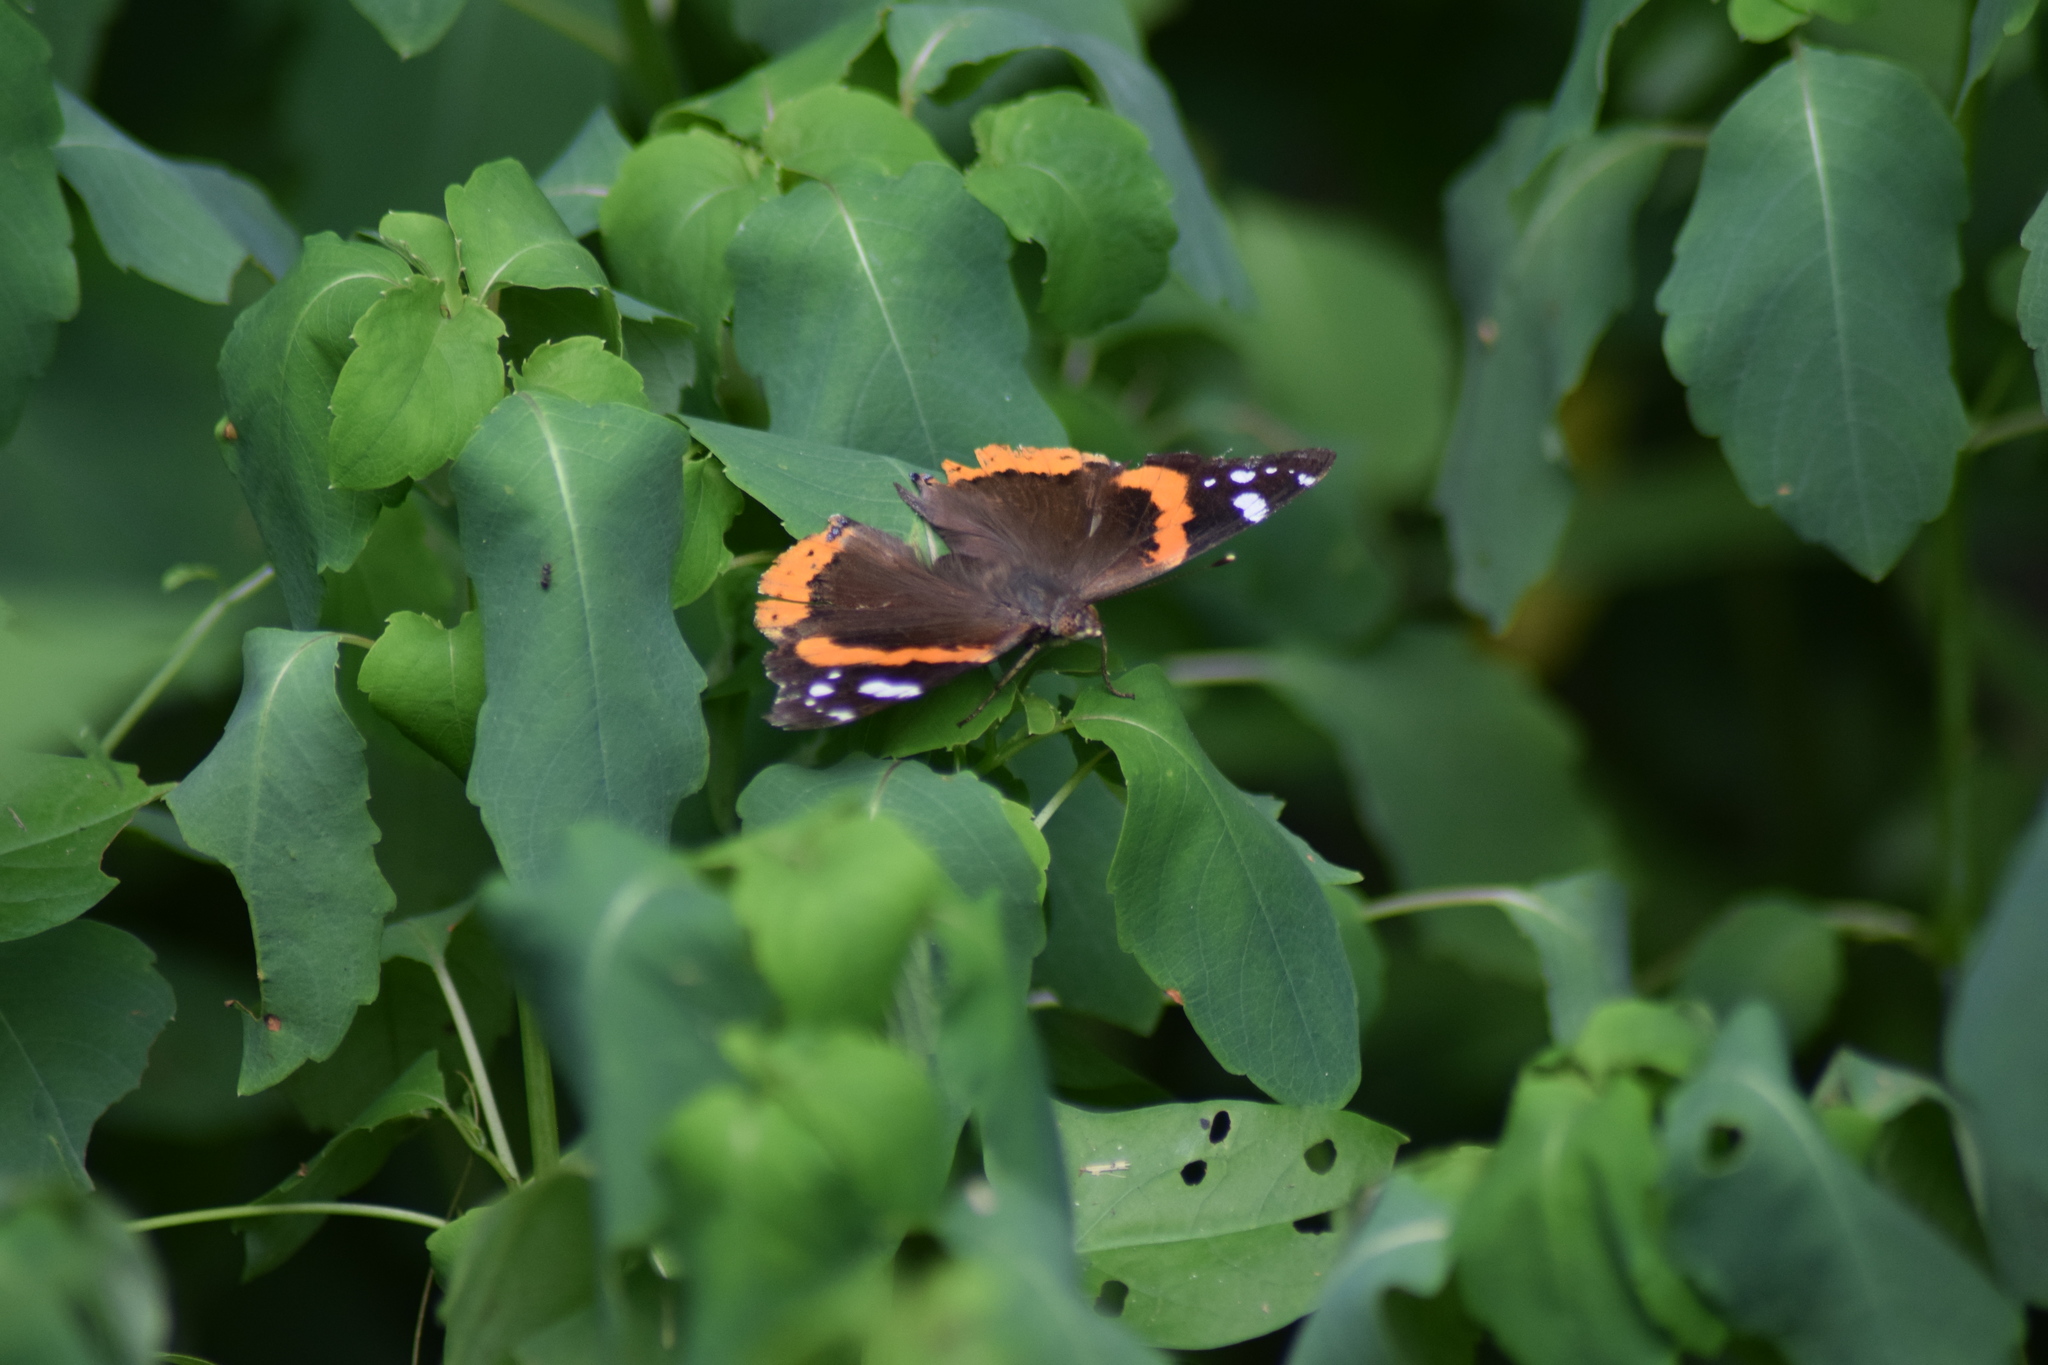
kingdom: Animalia
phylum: Arthropoda
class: Insecta
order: Lepidoptera
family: Nymphalidae
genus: Vanessa
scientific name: Vanessa atalanta
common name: Red admiral
